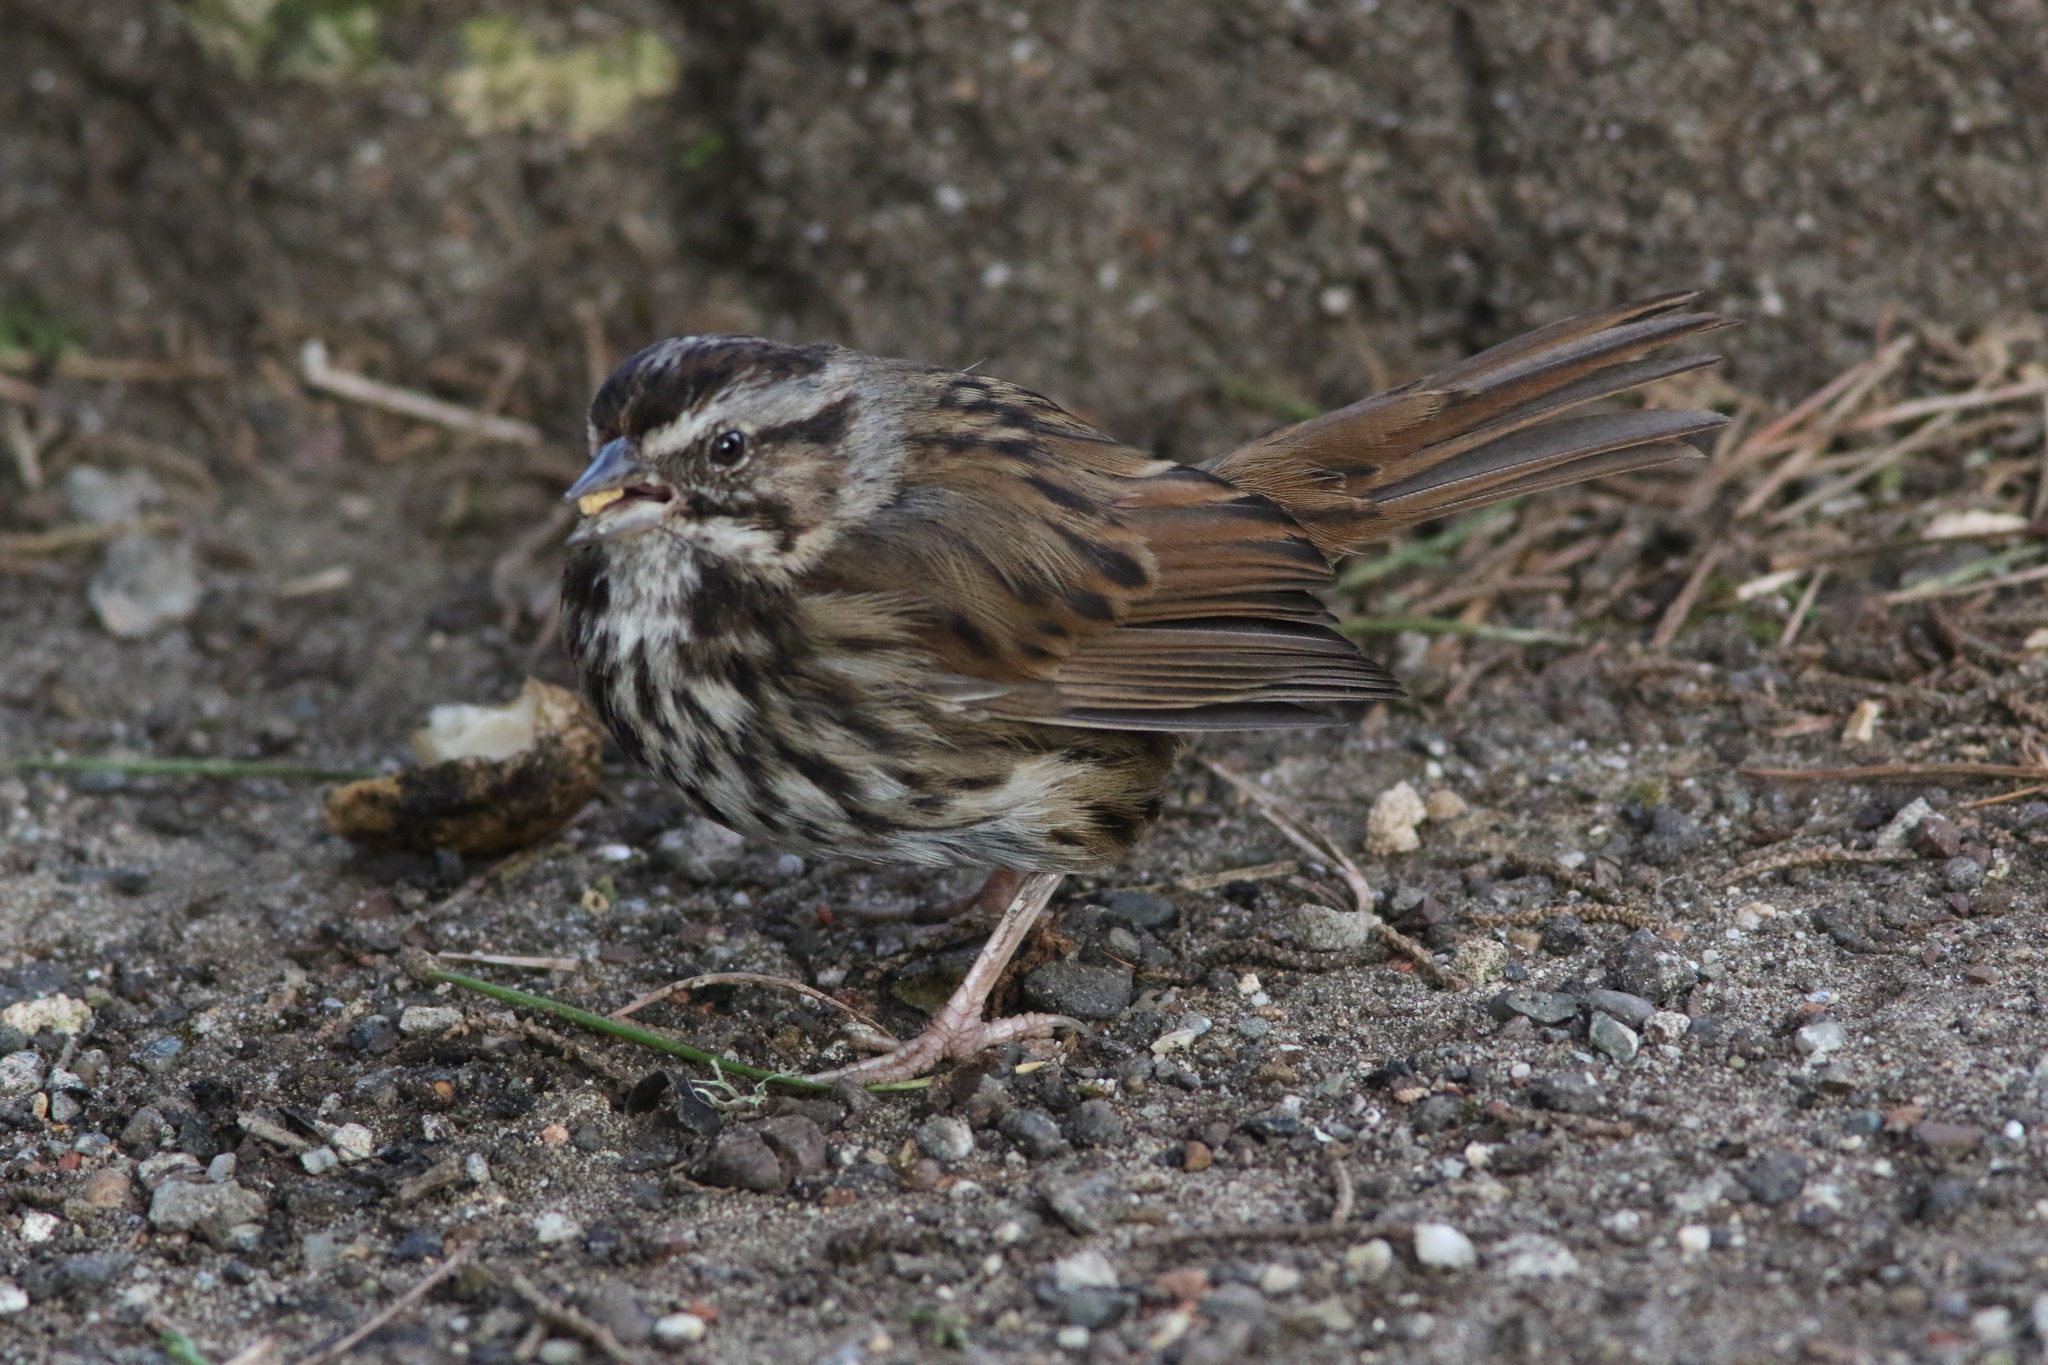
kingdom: Animalia
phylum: Chordata
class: Aves
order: Passeriformes
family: Passerellidae
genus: Melospiza
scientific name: Melospiza melodia
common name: Song sparrow
